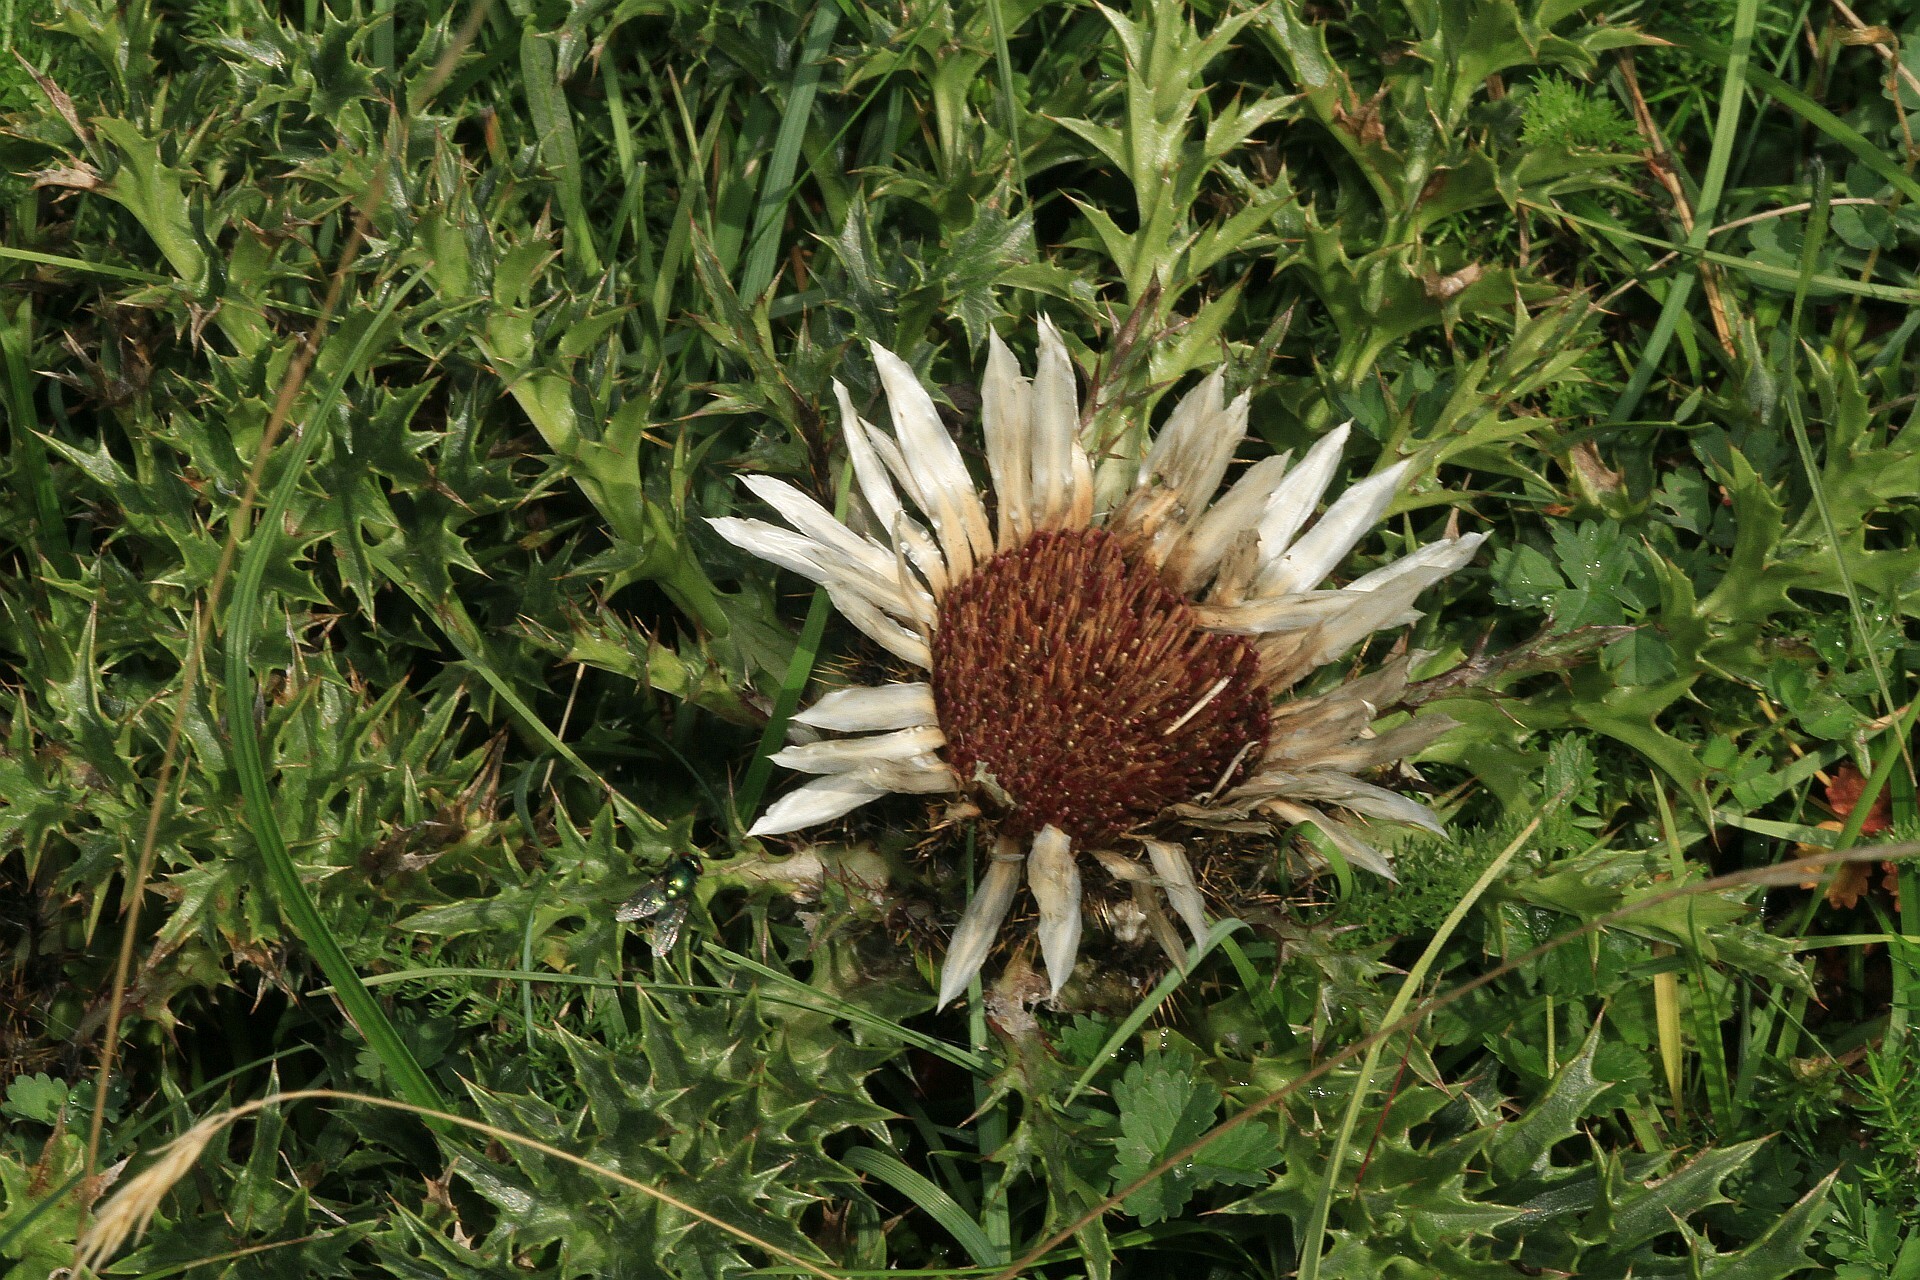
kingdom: Plantae
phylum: Tracheophyta
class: Magnoliopsida
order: Asterales
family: Asteraceae
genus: Carlina
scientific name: Carlina acaulis
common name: Stemless carline thistle
